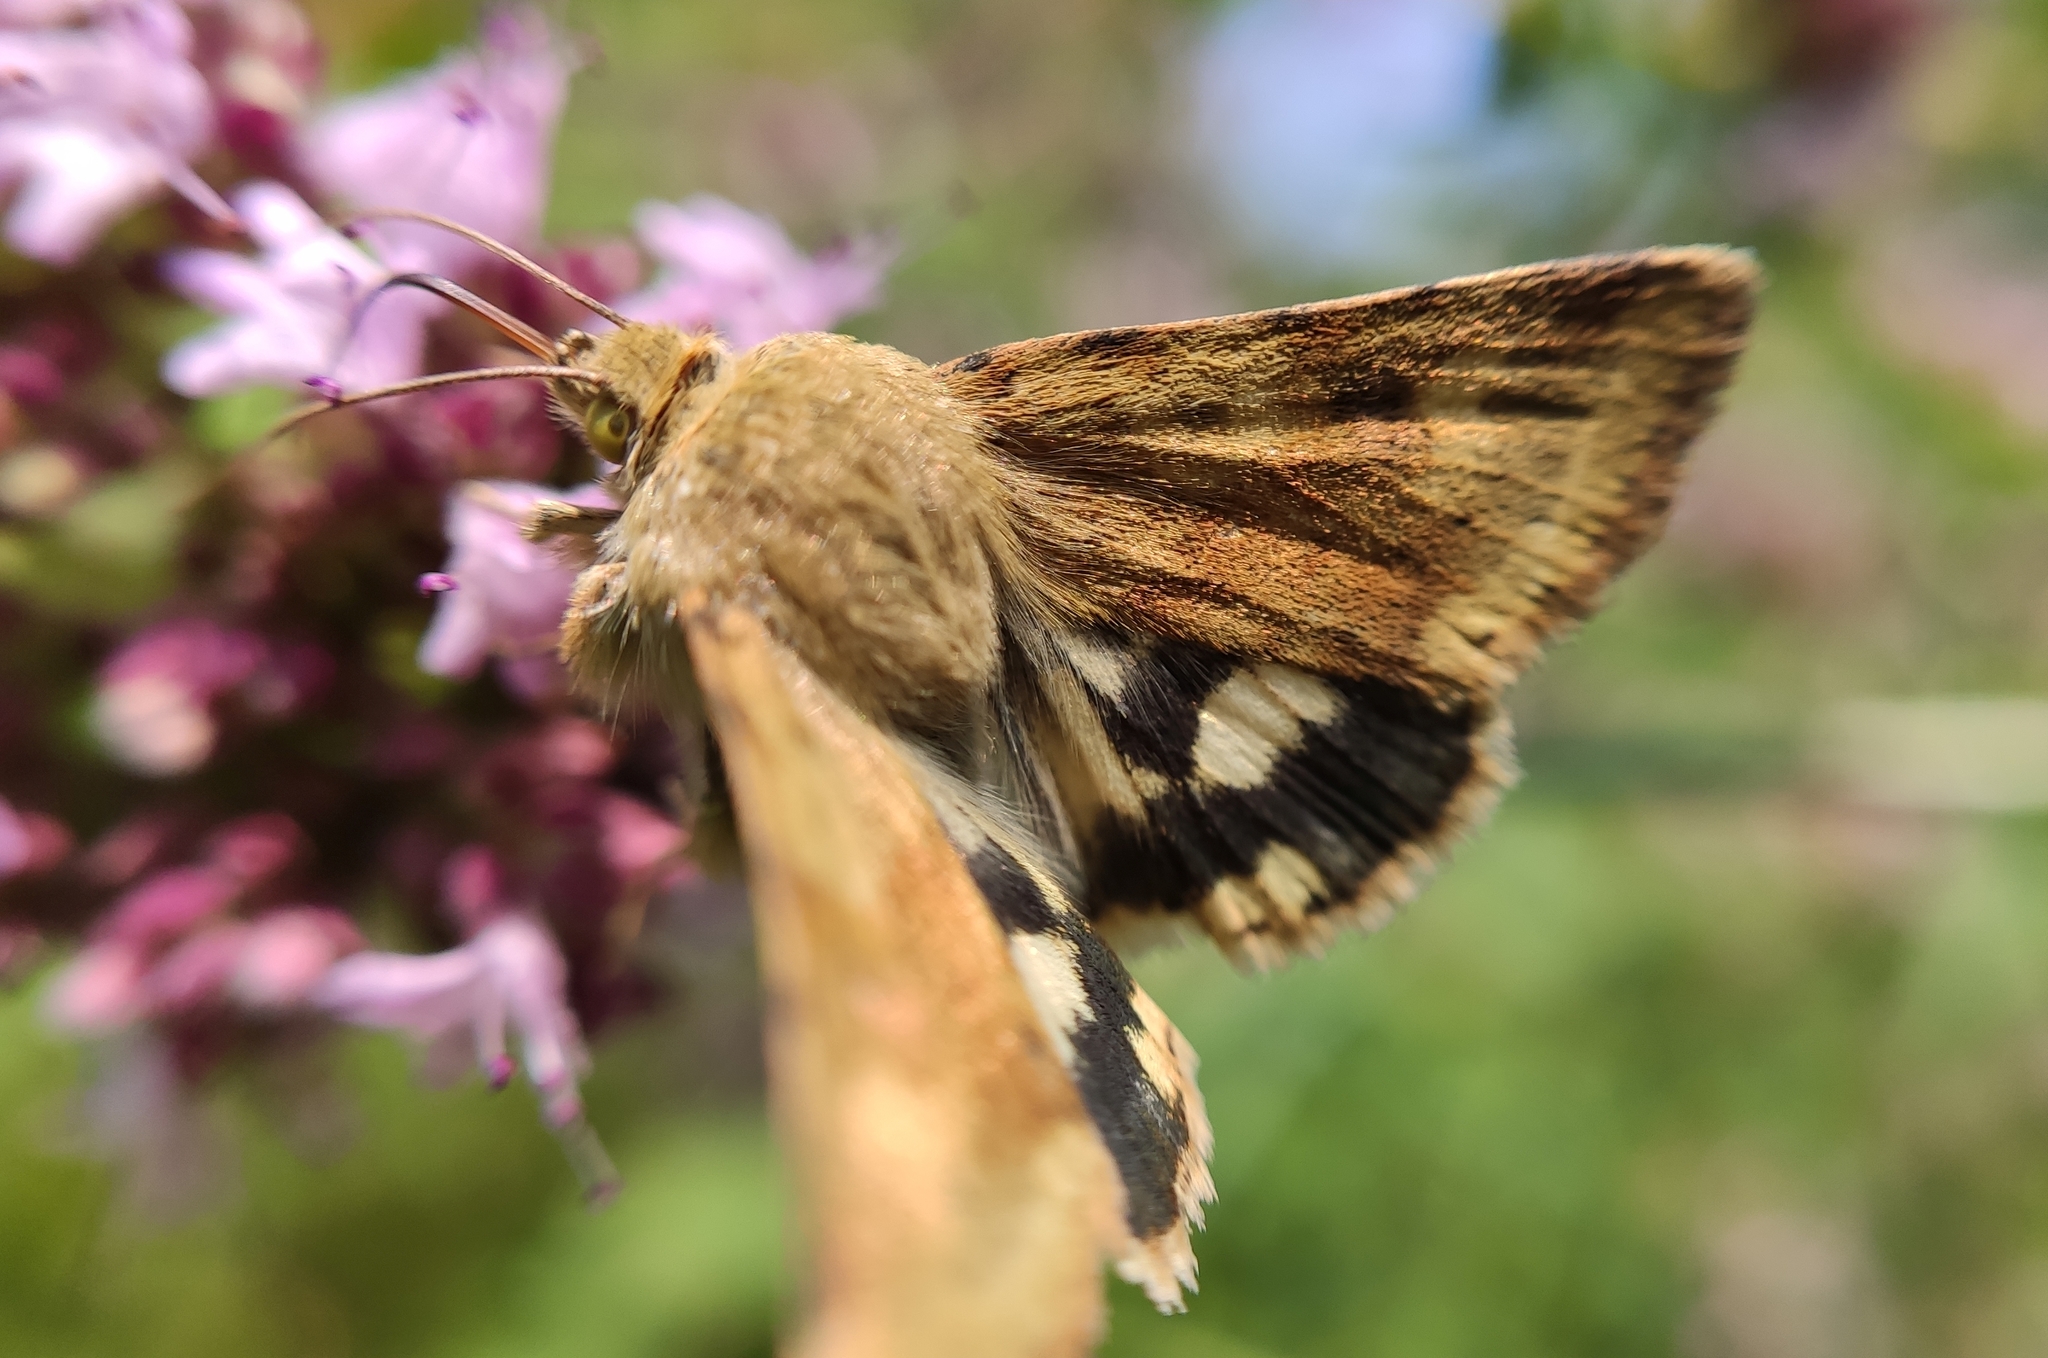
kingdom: Animalia
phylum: Arthropoda
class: Insecta
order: Lepidoptera
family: Noctuidae
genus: Heliothis
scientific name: Heliothis viriplaca
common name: Marbled clover
